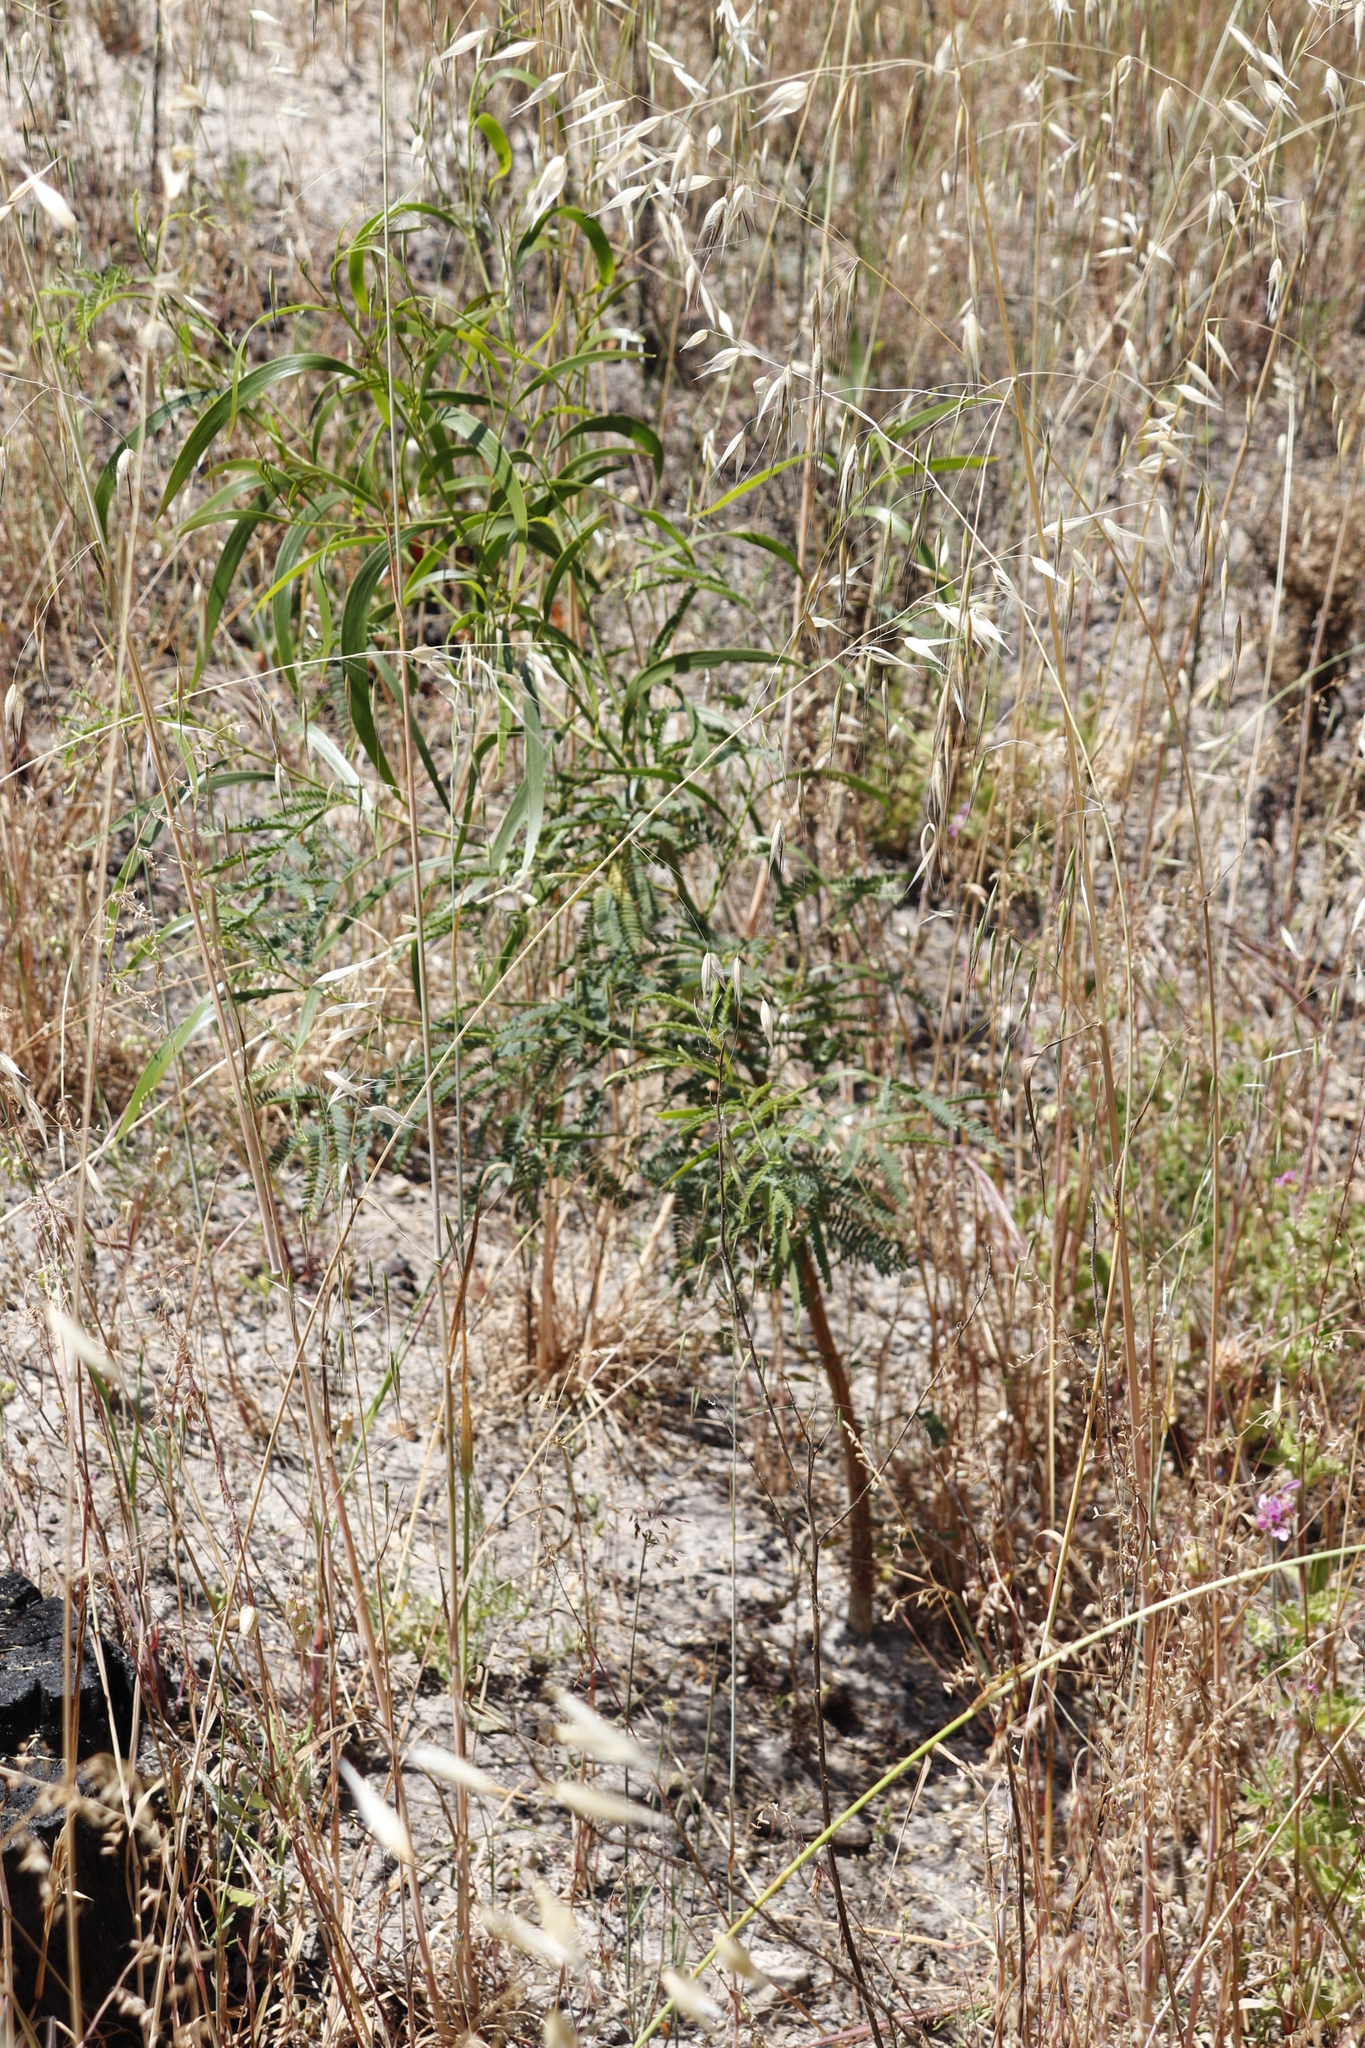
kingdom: Plantae
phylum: Tracheophyta
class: Liliopsida
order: Poales
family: Poaceae
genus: Avena
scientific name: Avena fatua
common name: Wild oat
